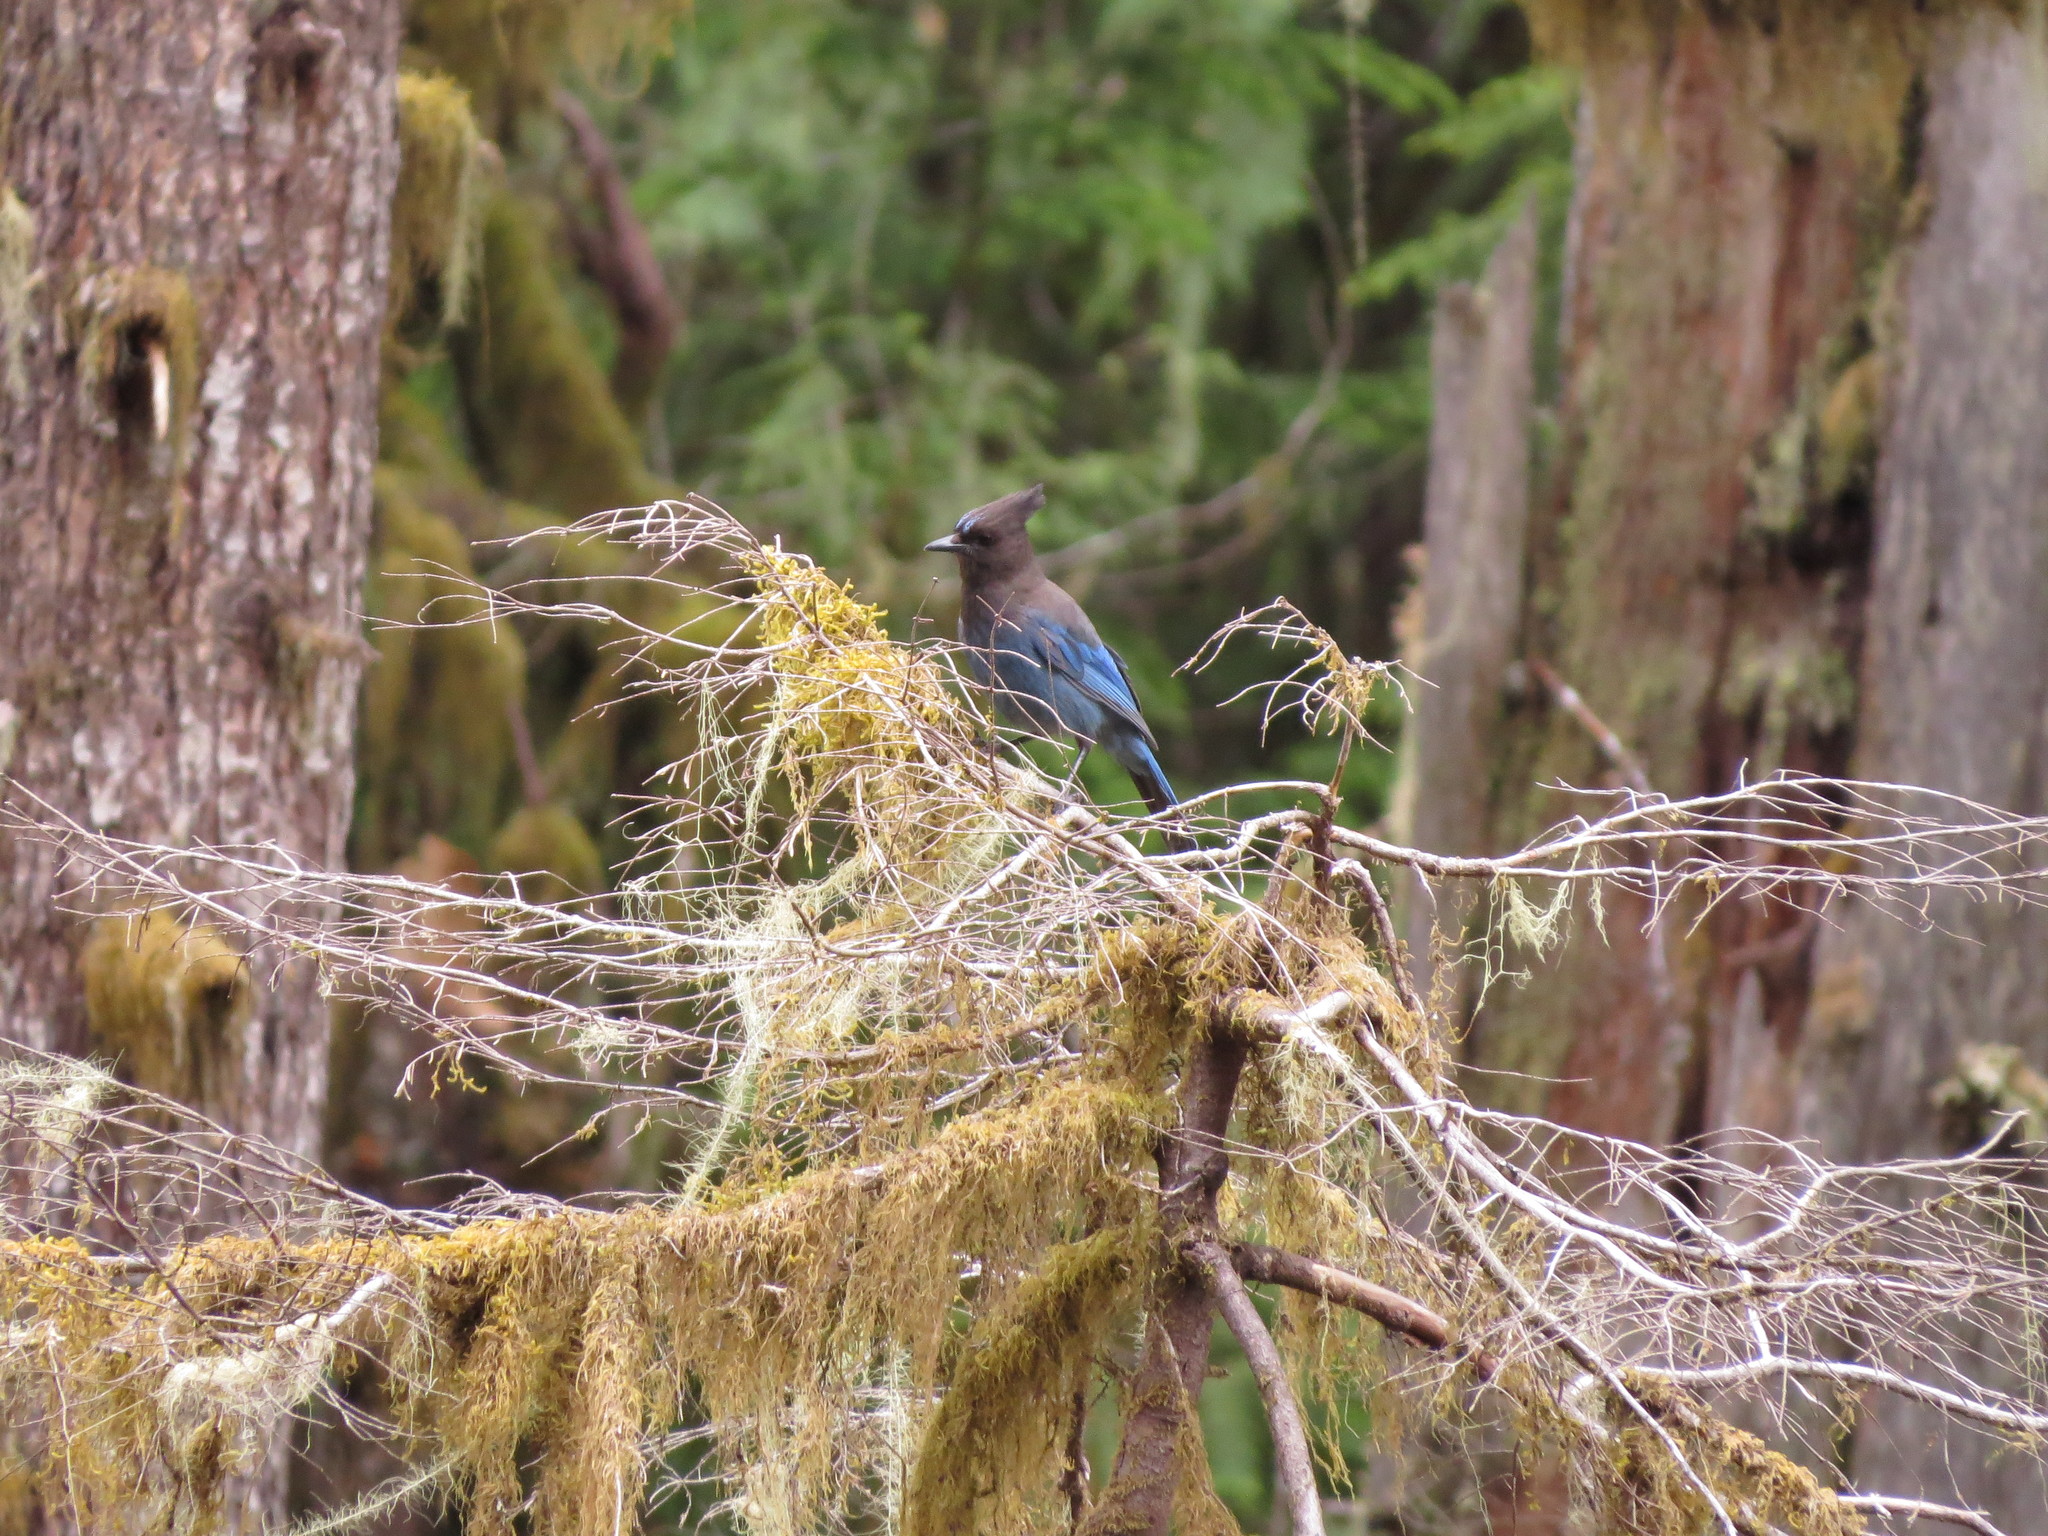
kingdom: Animalia
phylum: Chordata
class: Aves
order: Passeriformes
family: Corvidae
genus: Cyanocitta
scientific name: Cyanocitta stelleri
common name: Steller's jay
